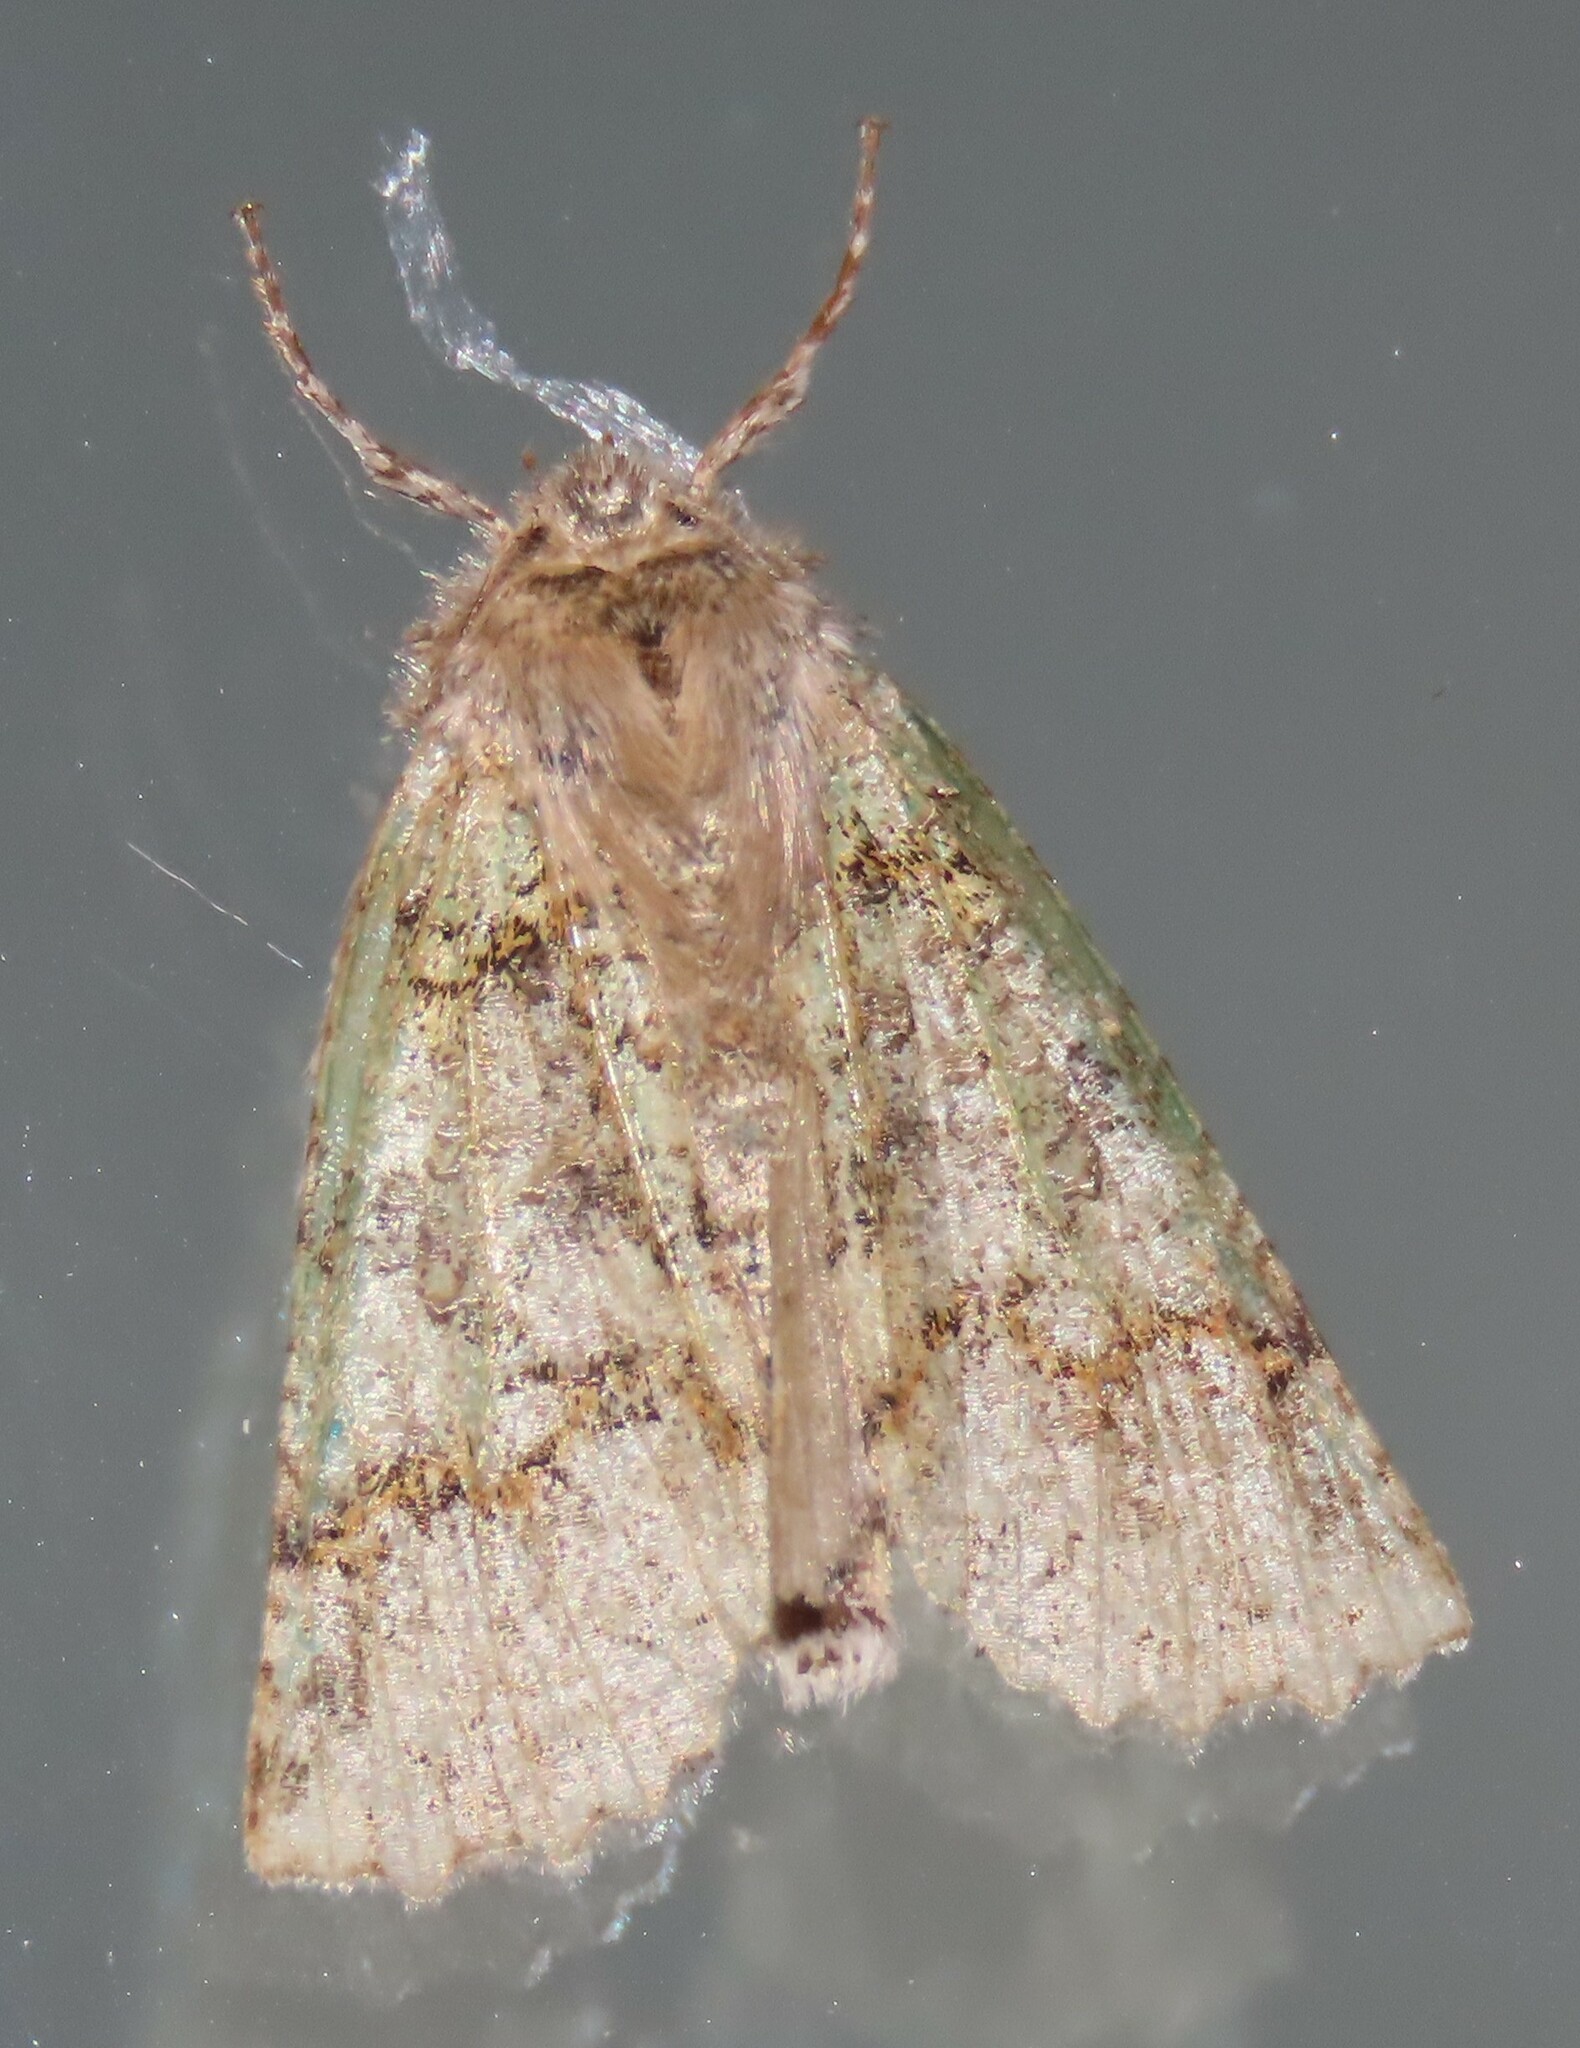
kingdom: Animalia
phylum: Arthropoda
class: Insecta
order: Lepidoptera
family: Geometridae
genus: Declana
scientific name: Declana floccosa
